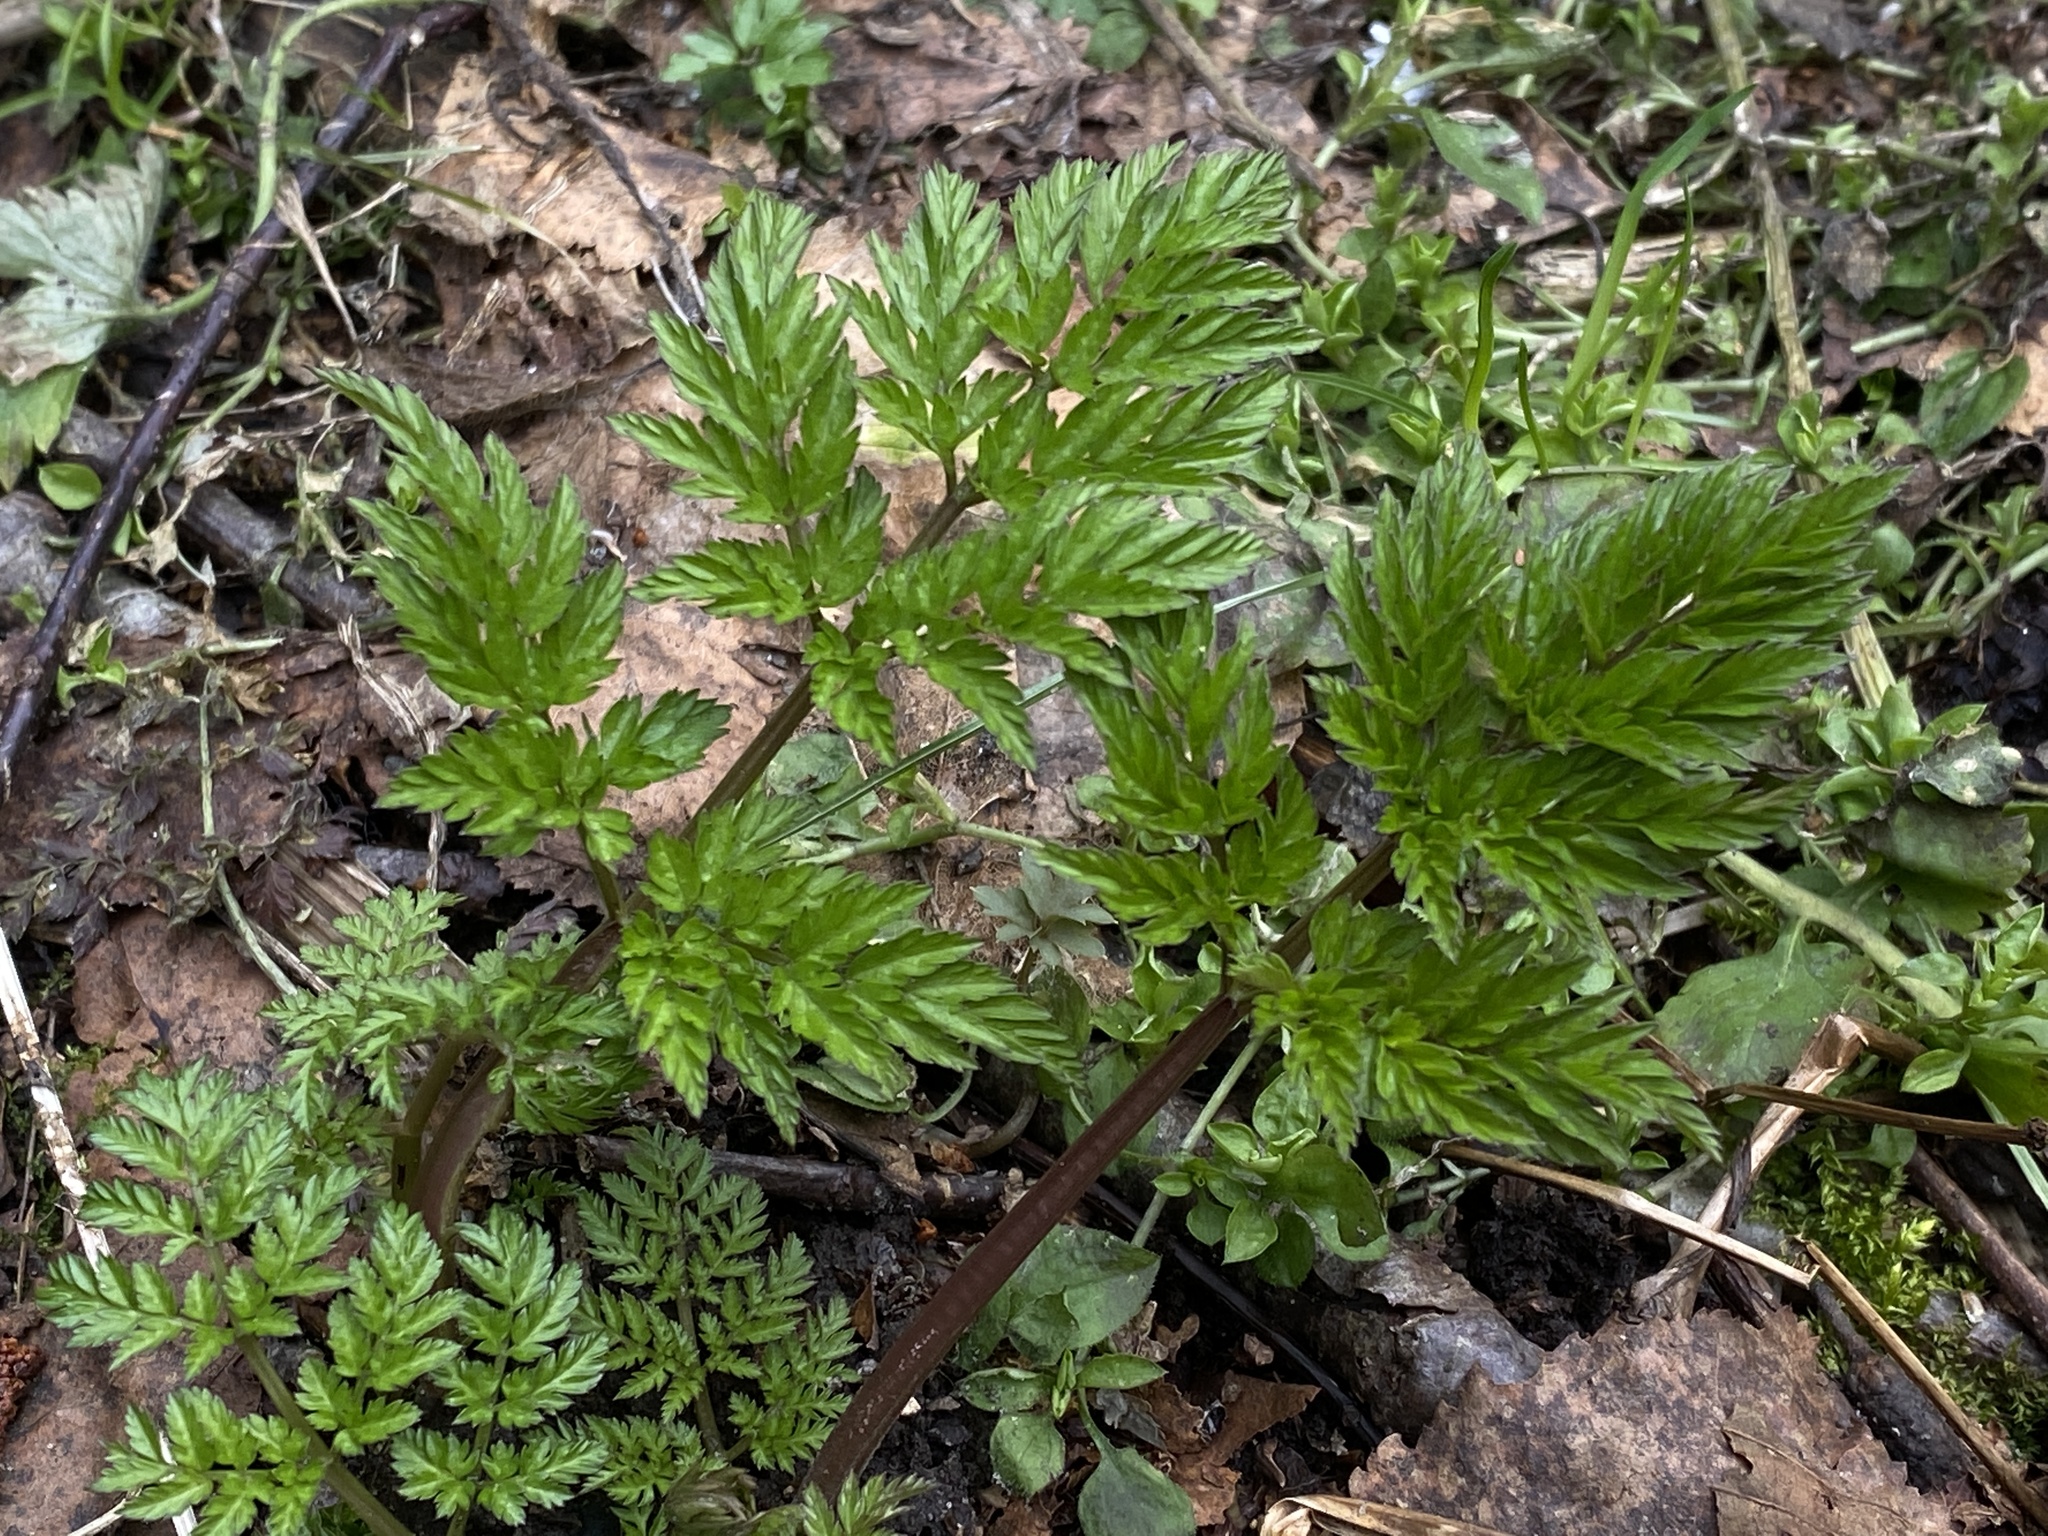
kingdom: Plantae
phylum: Tracheophyta
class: Magnoliopsida
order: Apiales
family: Apiaceae
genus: Anthriscus
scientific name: Anthriscus sylvestris
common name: Cow parsley
